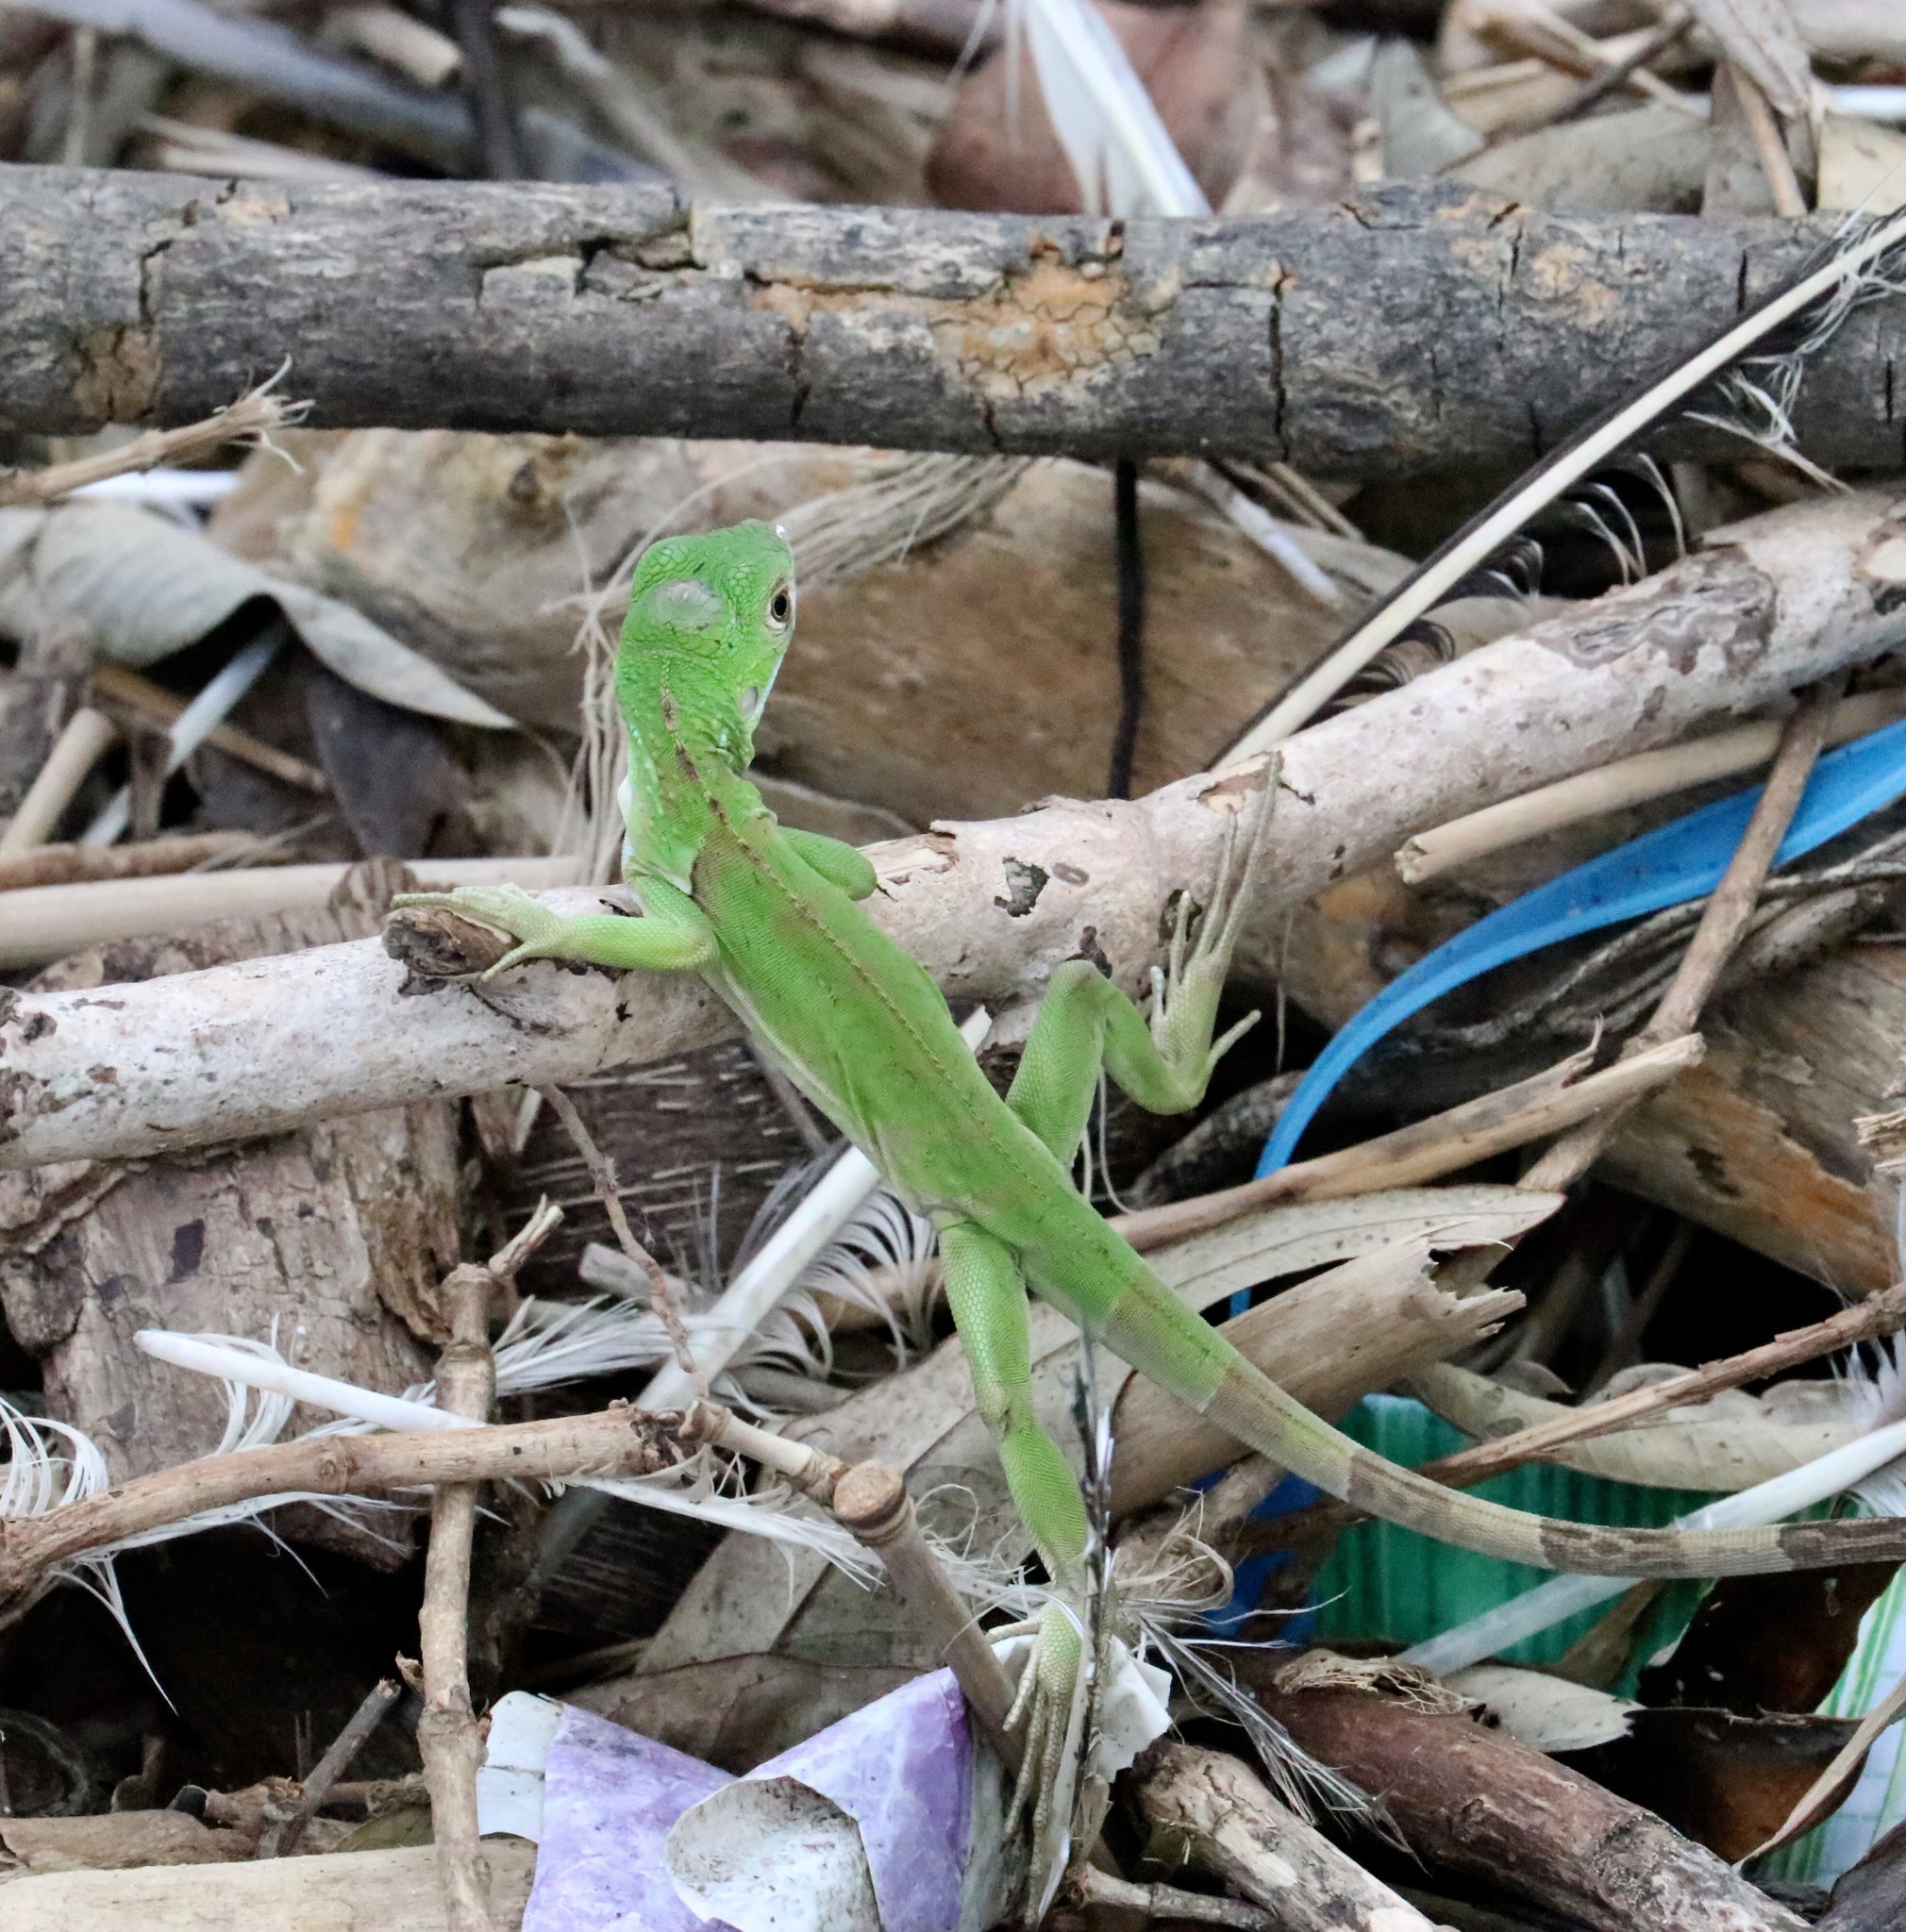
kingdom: Animalia
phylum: Chordata
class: Squamata
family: Iguanidae
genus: Iguana
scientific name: Iguana iguana
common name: Green iguana
